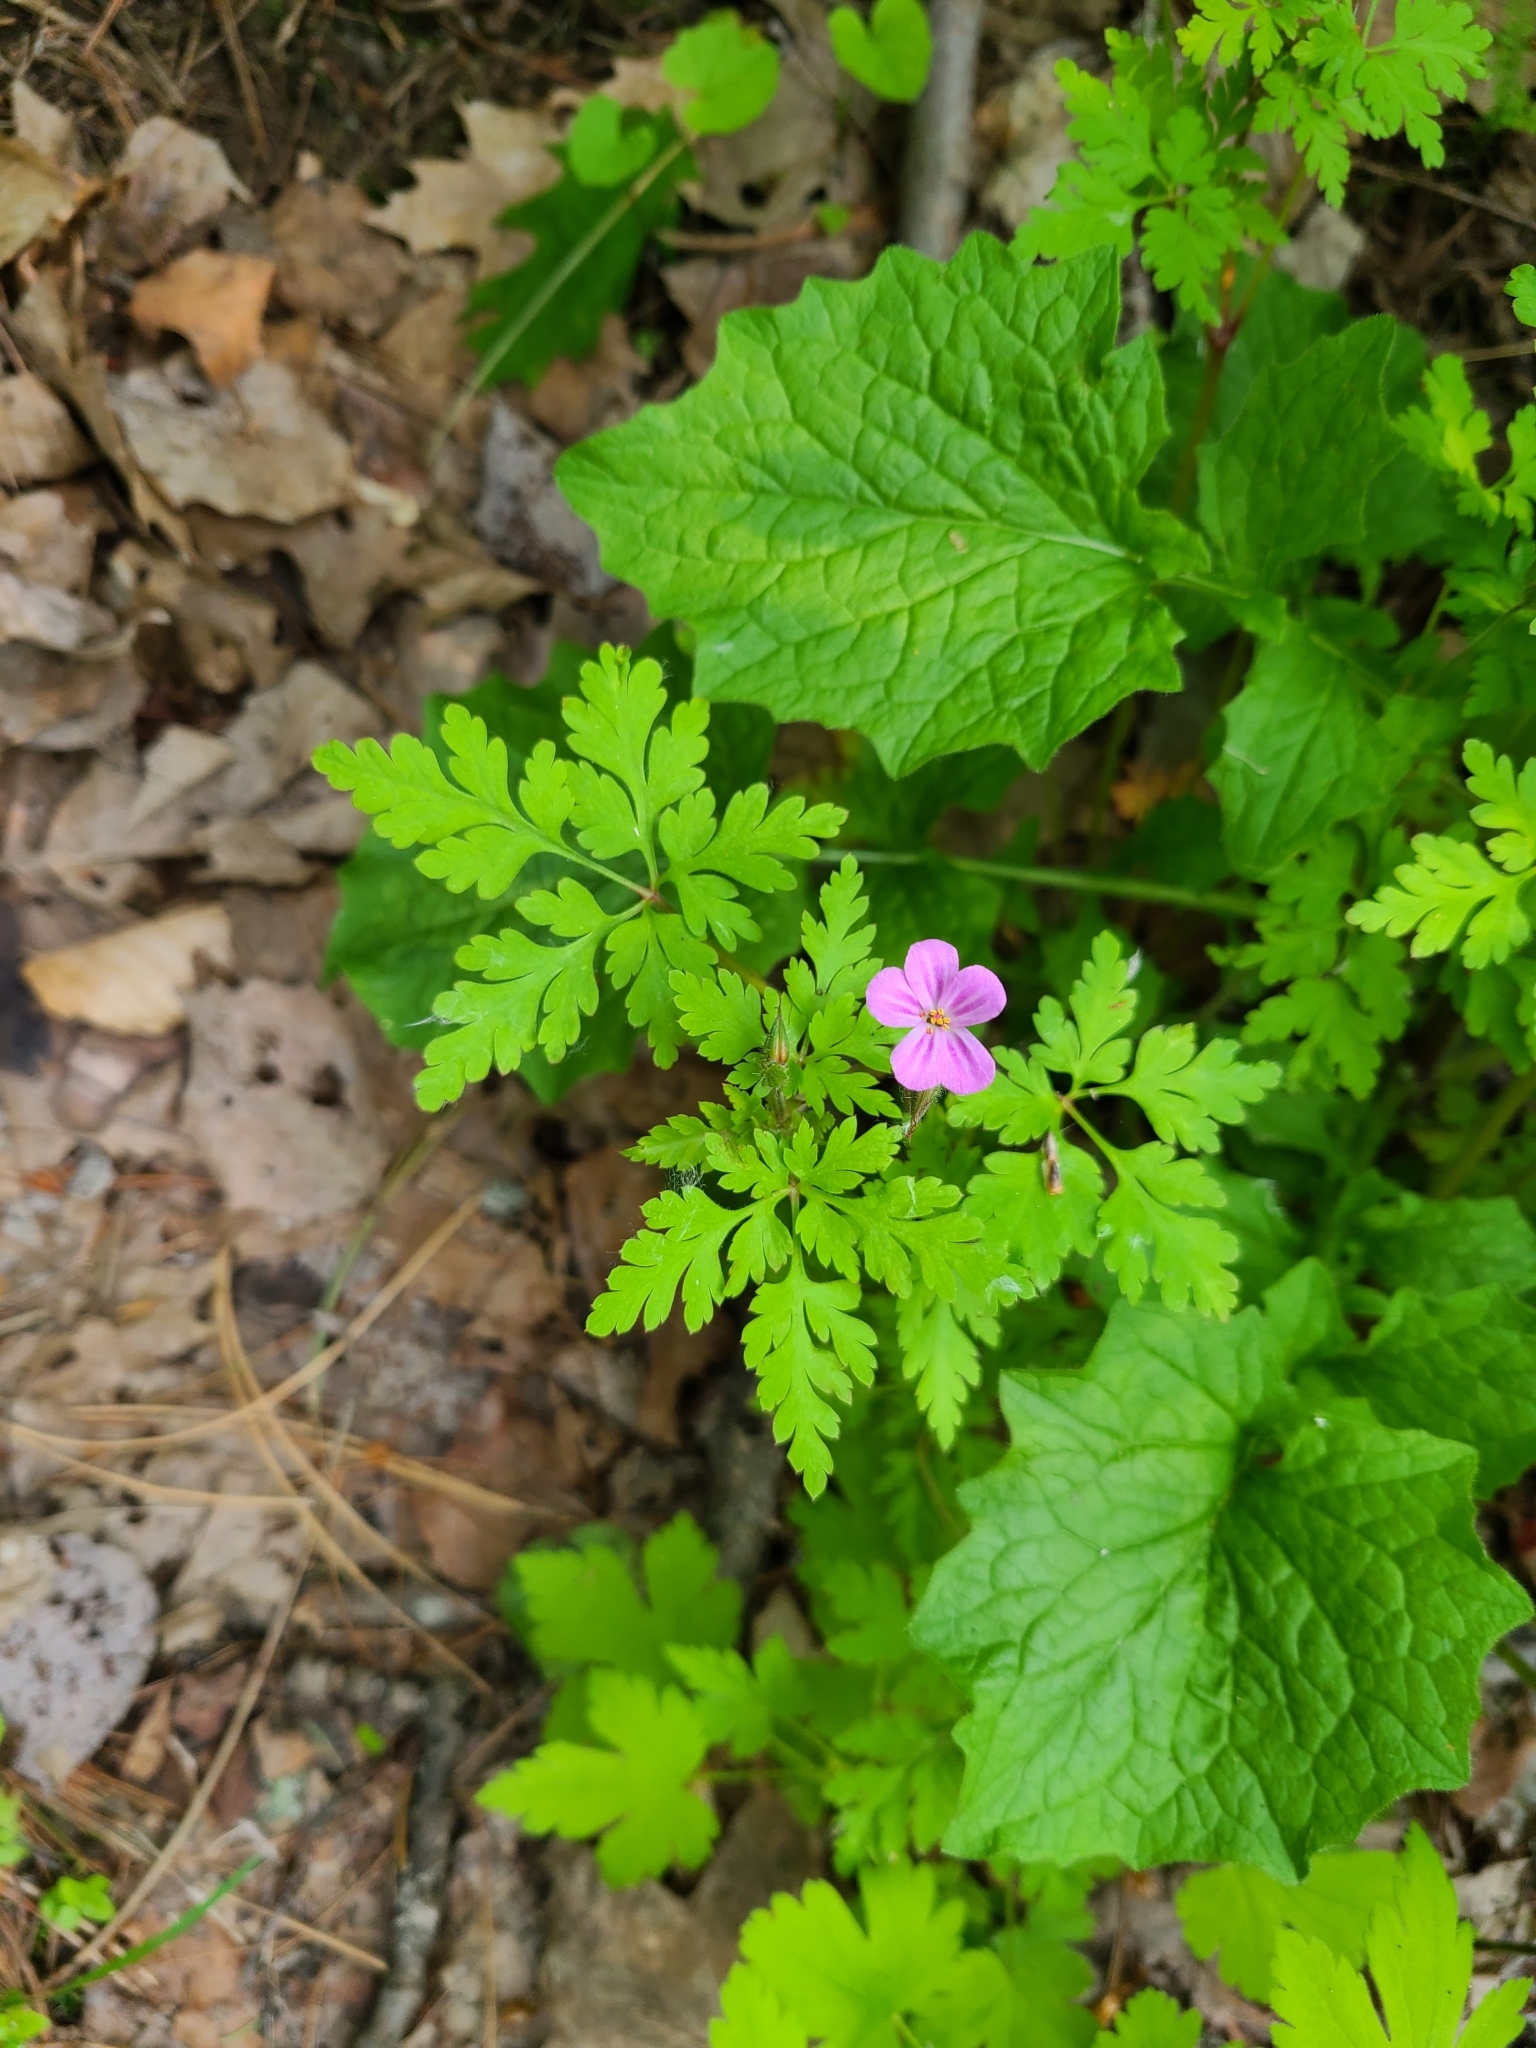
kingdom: Plantae
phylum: Tracheophyta
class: Magnoliopsida
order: Geraniales
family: Geraniaceae
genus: Geranium
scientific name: Geranium robertianum
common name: Herb-robert
